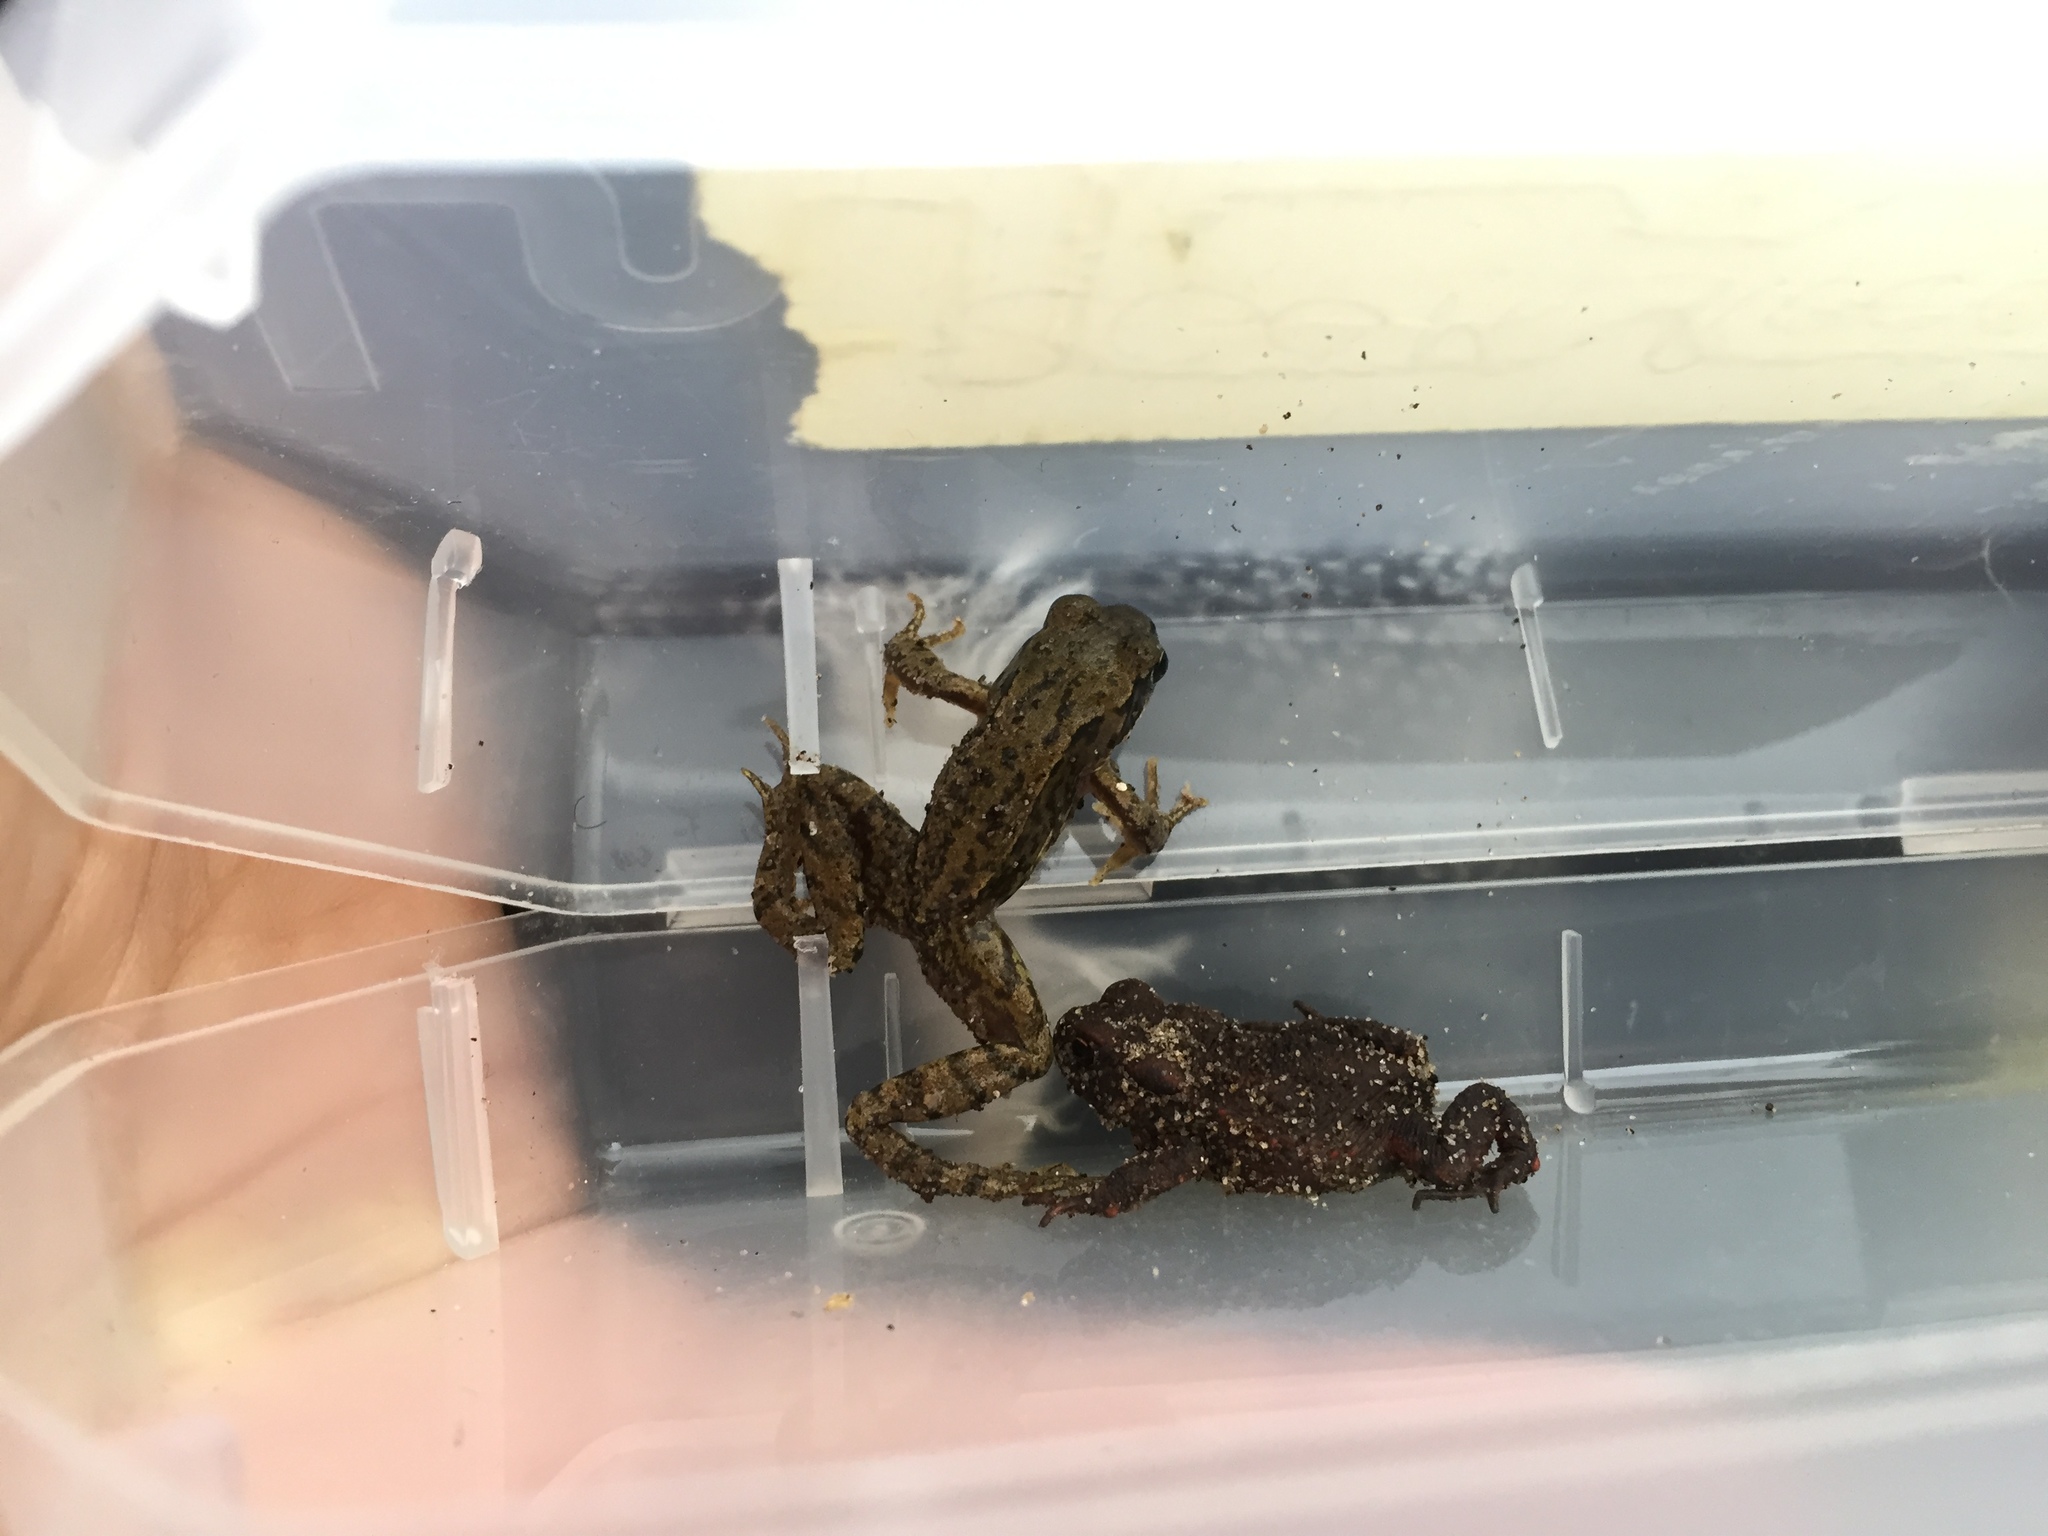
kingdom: Animalia
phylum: Chordata
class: Amphibia
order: Anura
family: Bufonidae
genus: Bufo
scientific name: Bufo bufo
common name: Common toad
